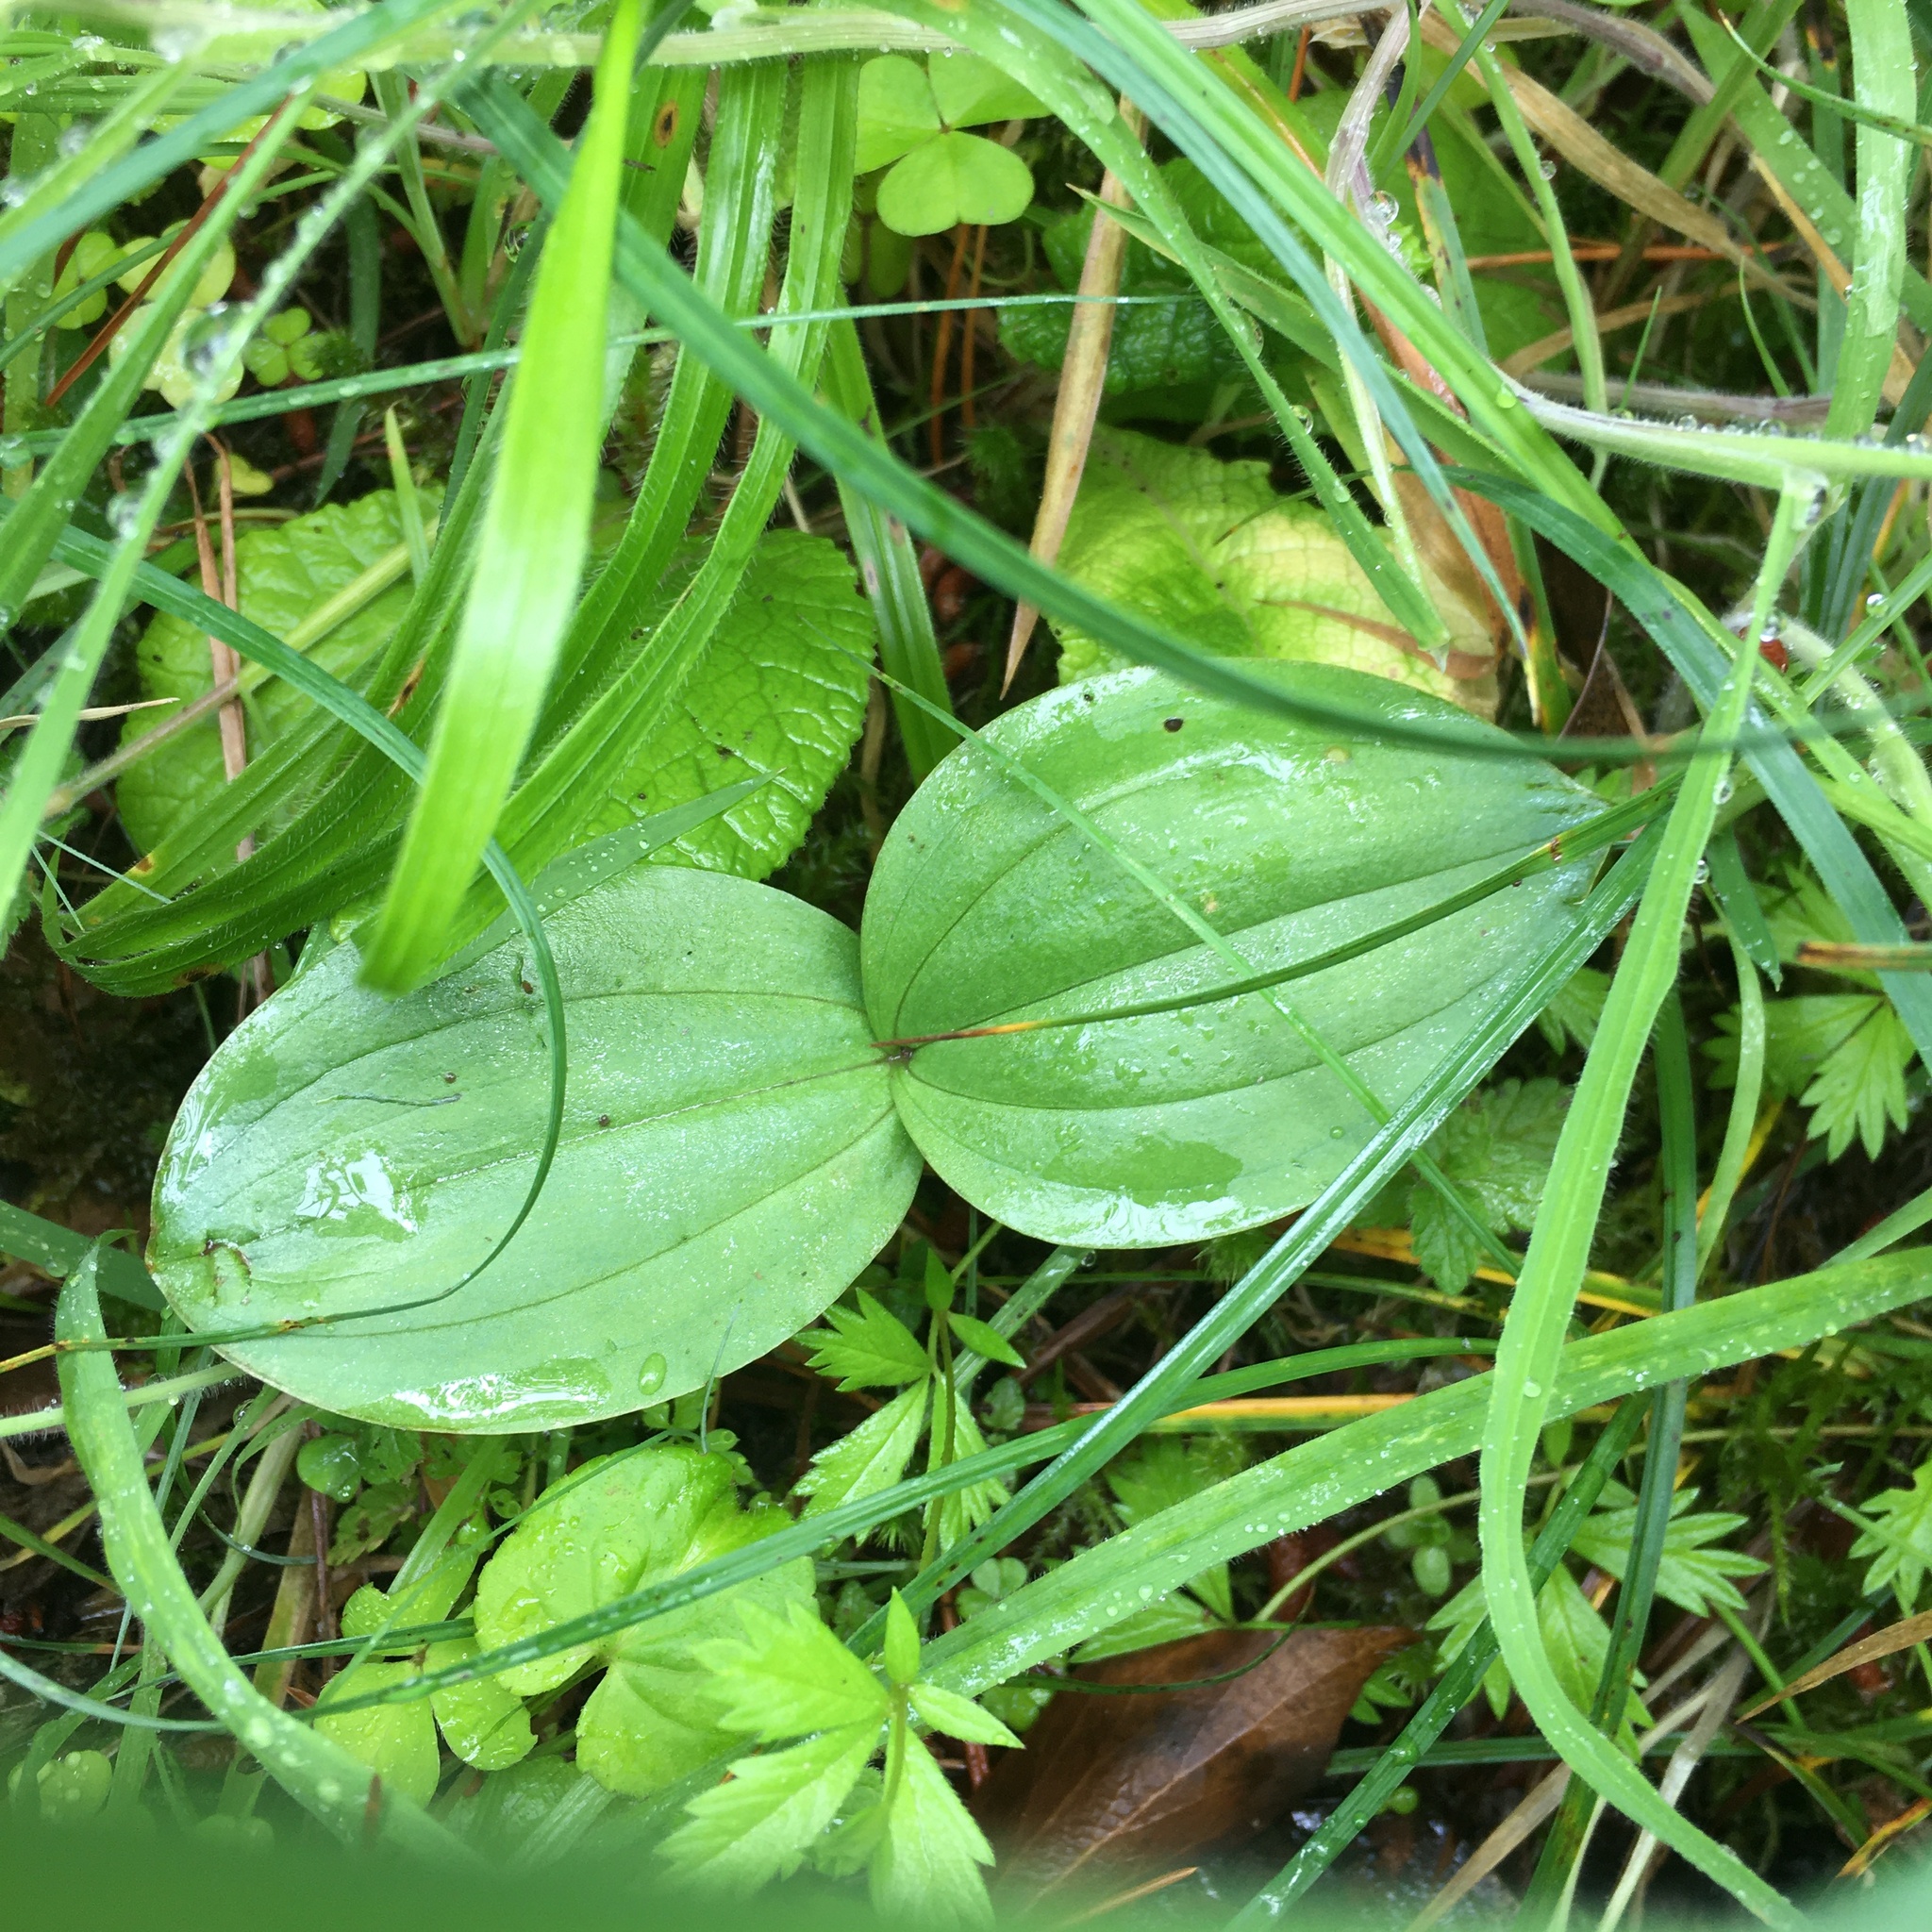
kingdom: Plantae
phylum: Tracheophyta
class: Liliopsida
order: Asparagales
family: Orchidaceae
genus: Neottia
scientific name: Neottia ovata
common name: Common twayblade
